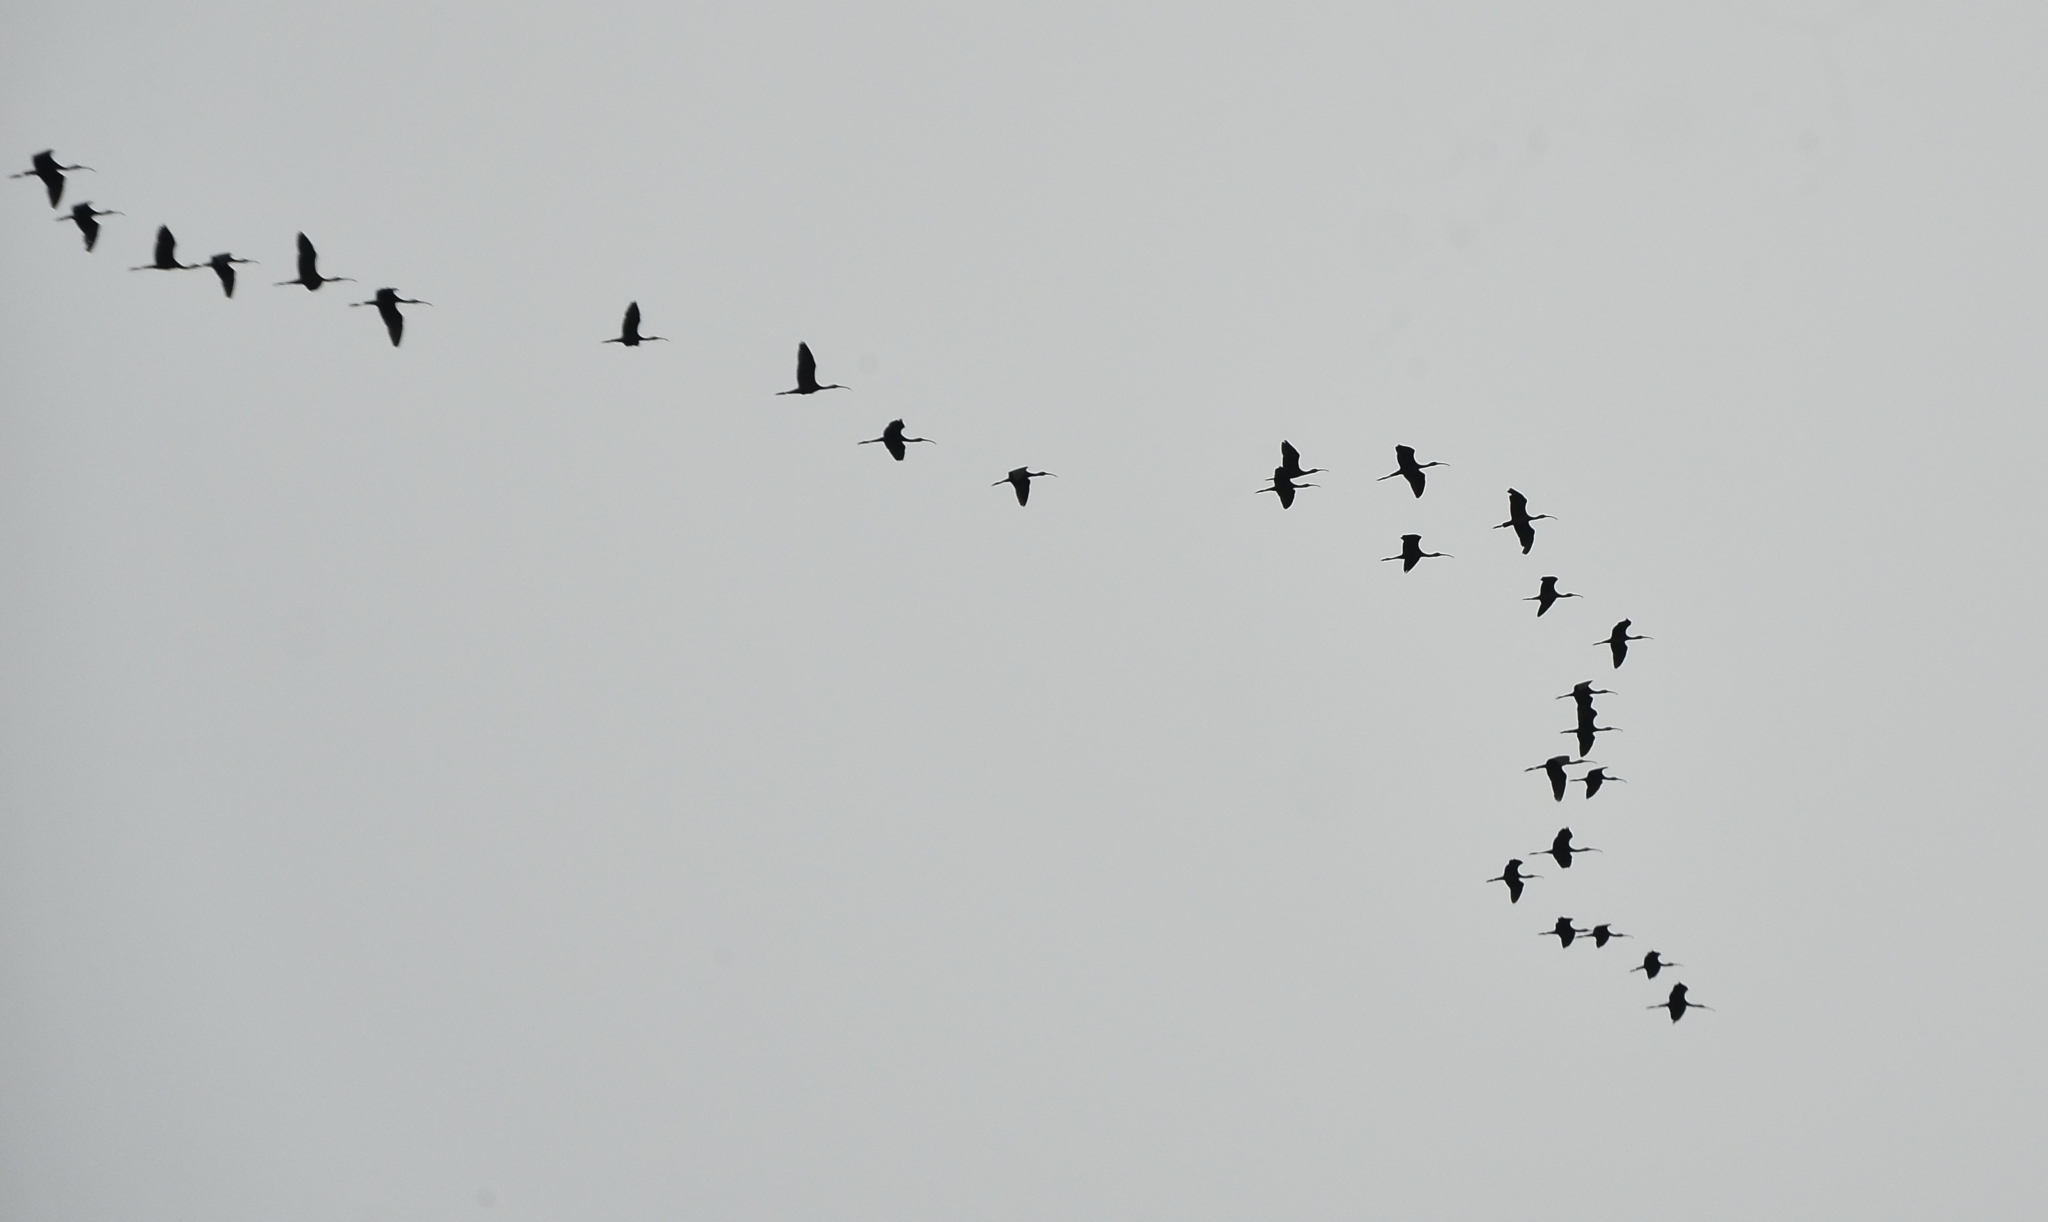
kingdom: Animalia
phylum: Chordata
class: Aves
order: Pelecaniformes
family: Threskiornithidae
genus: Plegadis
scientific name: Plegadis falcinellus
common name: Glossy ibis
